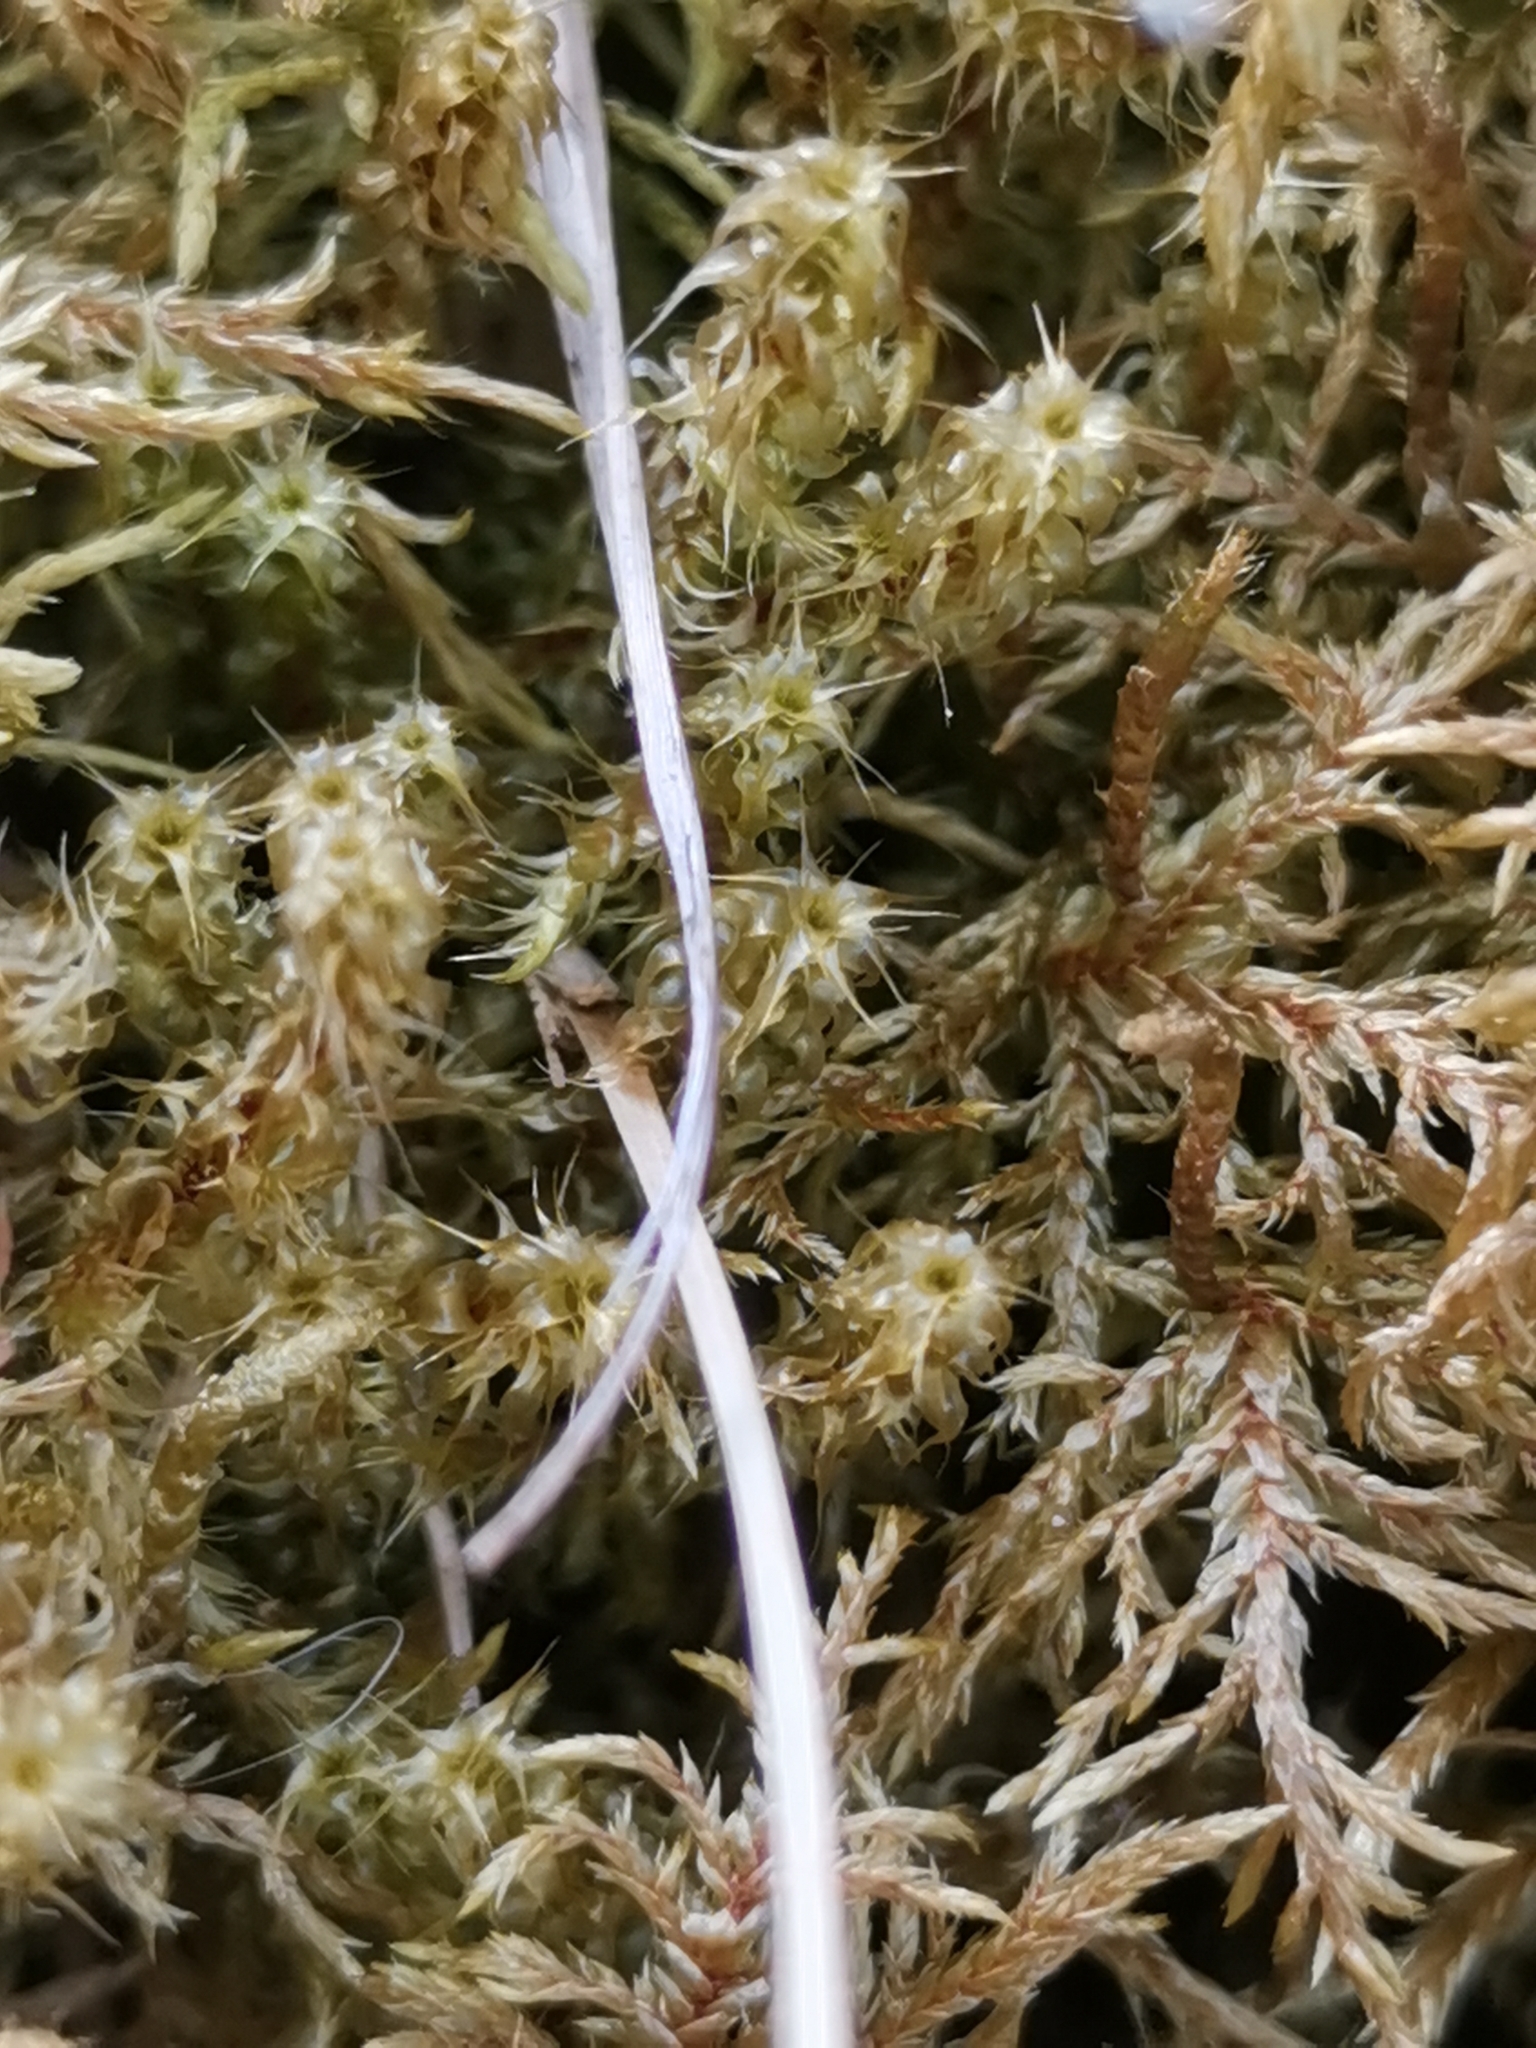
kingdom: Plantae
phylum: Bryophyta
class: Bryopsida
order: Hypnales
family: Hylocomiaceae
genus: Rhytidiadelphus
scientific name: Rhytidiadelphus squarrosus
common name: Springy turf-moss
